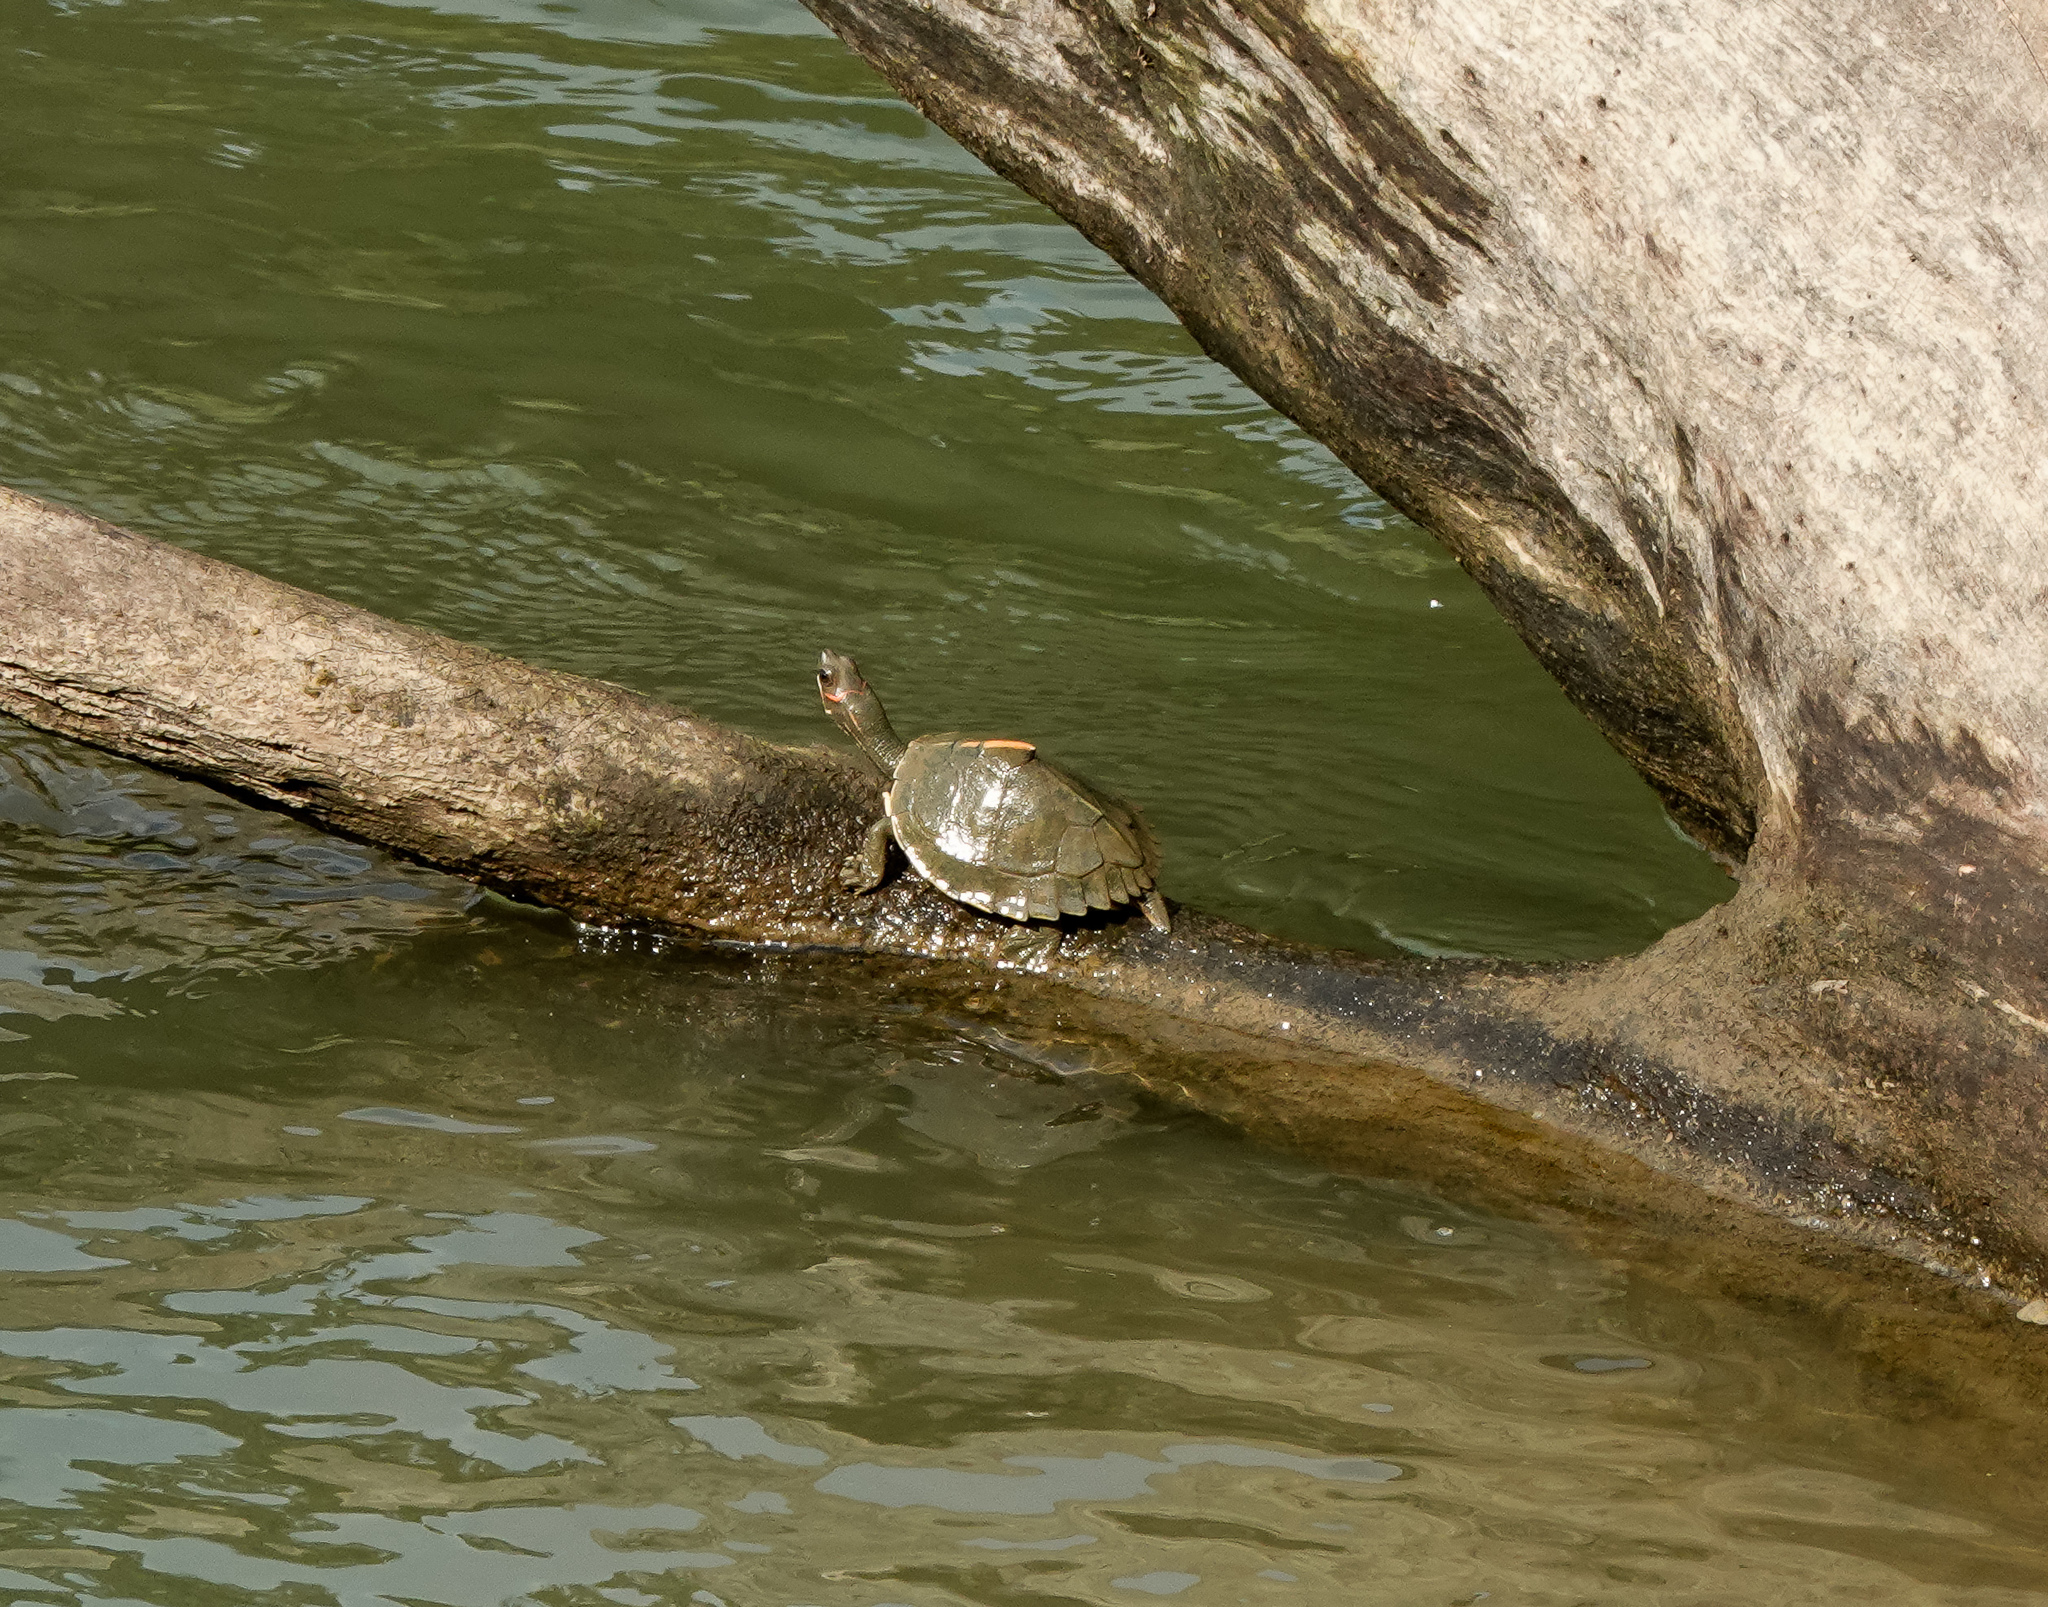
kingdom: Animalia
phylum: Chordata
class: Testudines
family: Geoemydidae
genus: Pangshura
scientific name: Pangshura sylhetensis
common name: Assam roofed turtle
